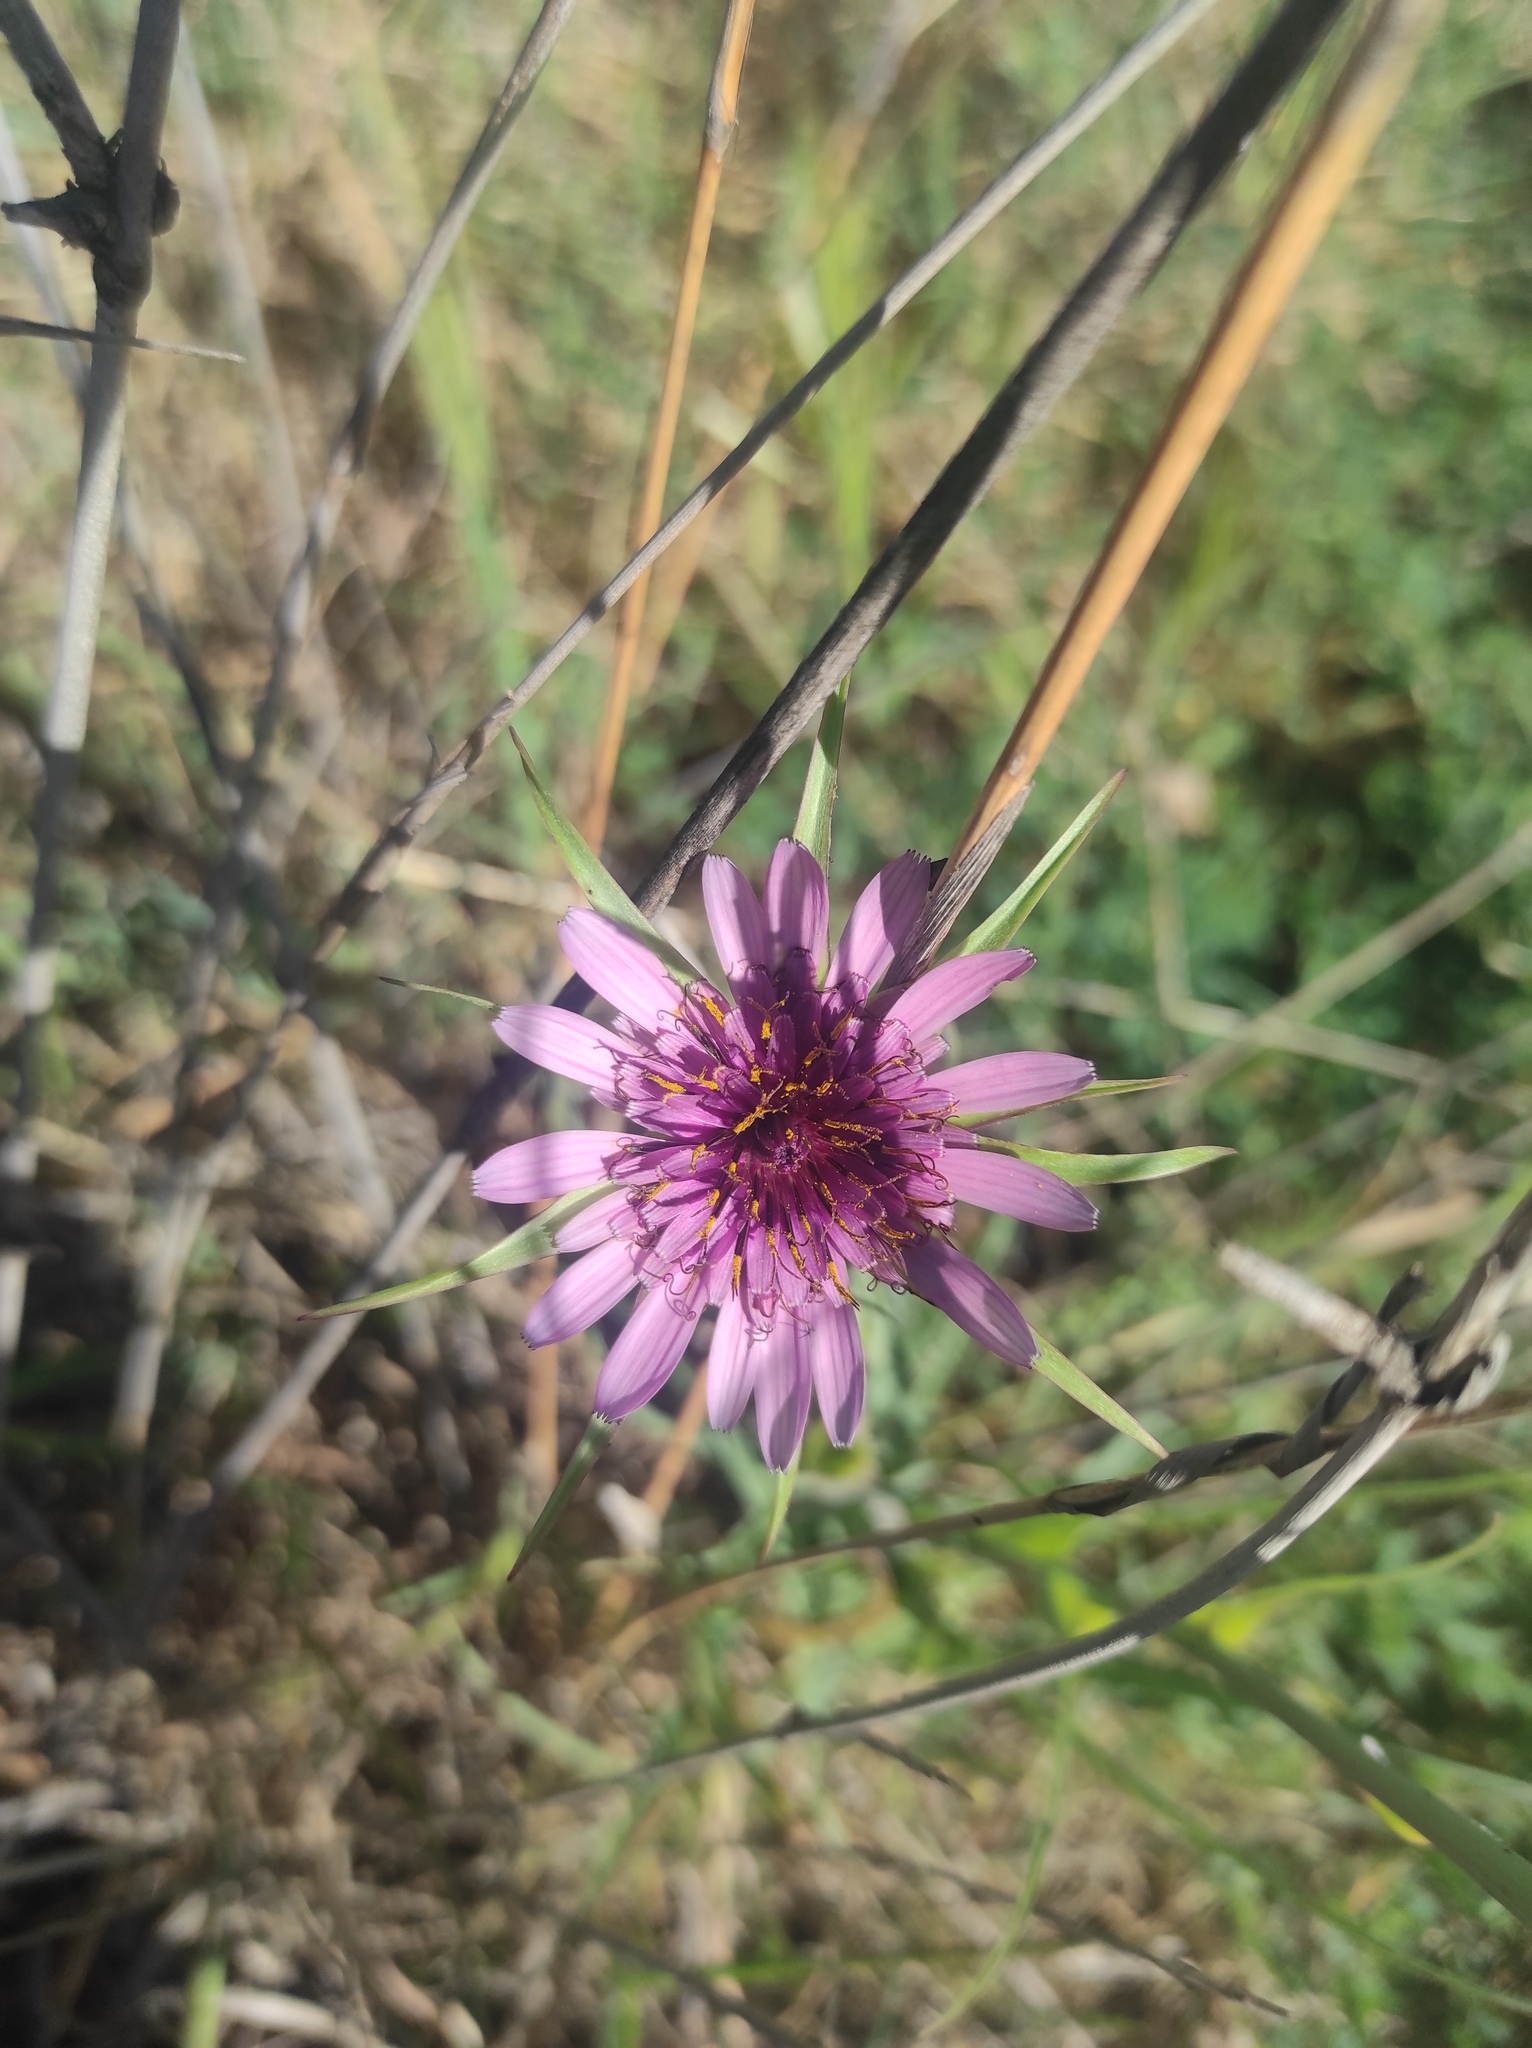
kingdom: Plantae
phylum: Tracheophyta
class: Magnoliopsida
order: Asterales
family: Asteraceae
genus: Tragopogon
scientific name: Tragopogon porrifolius
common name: Salsify
